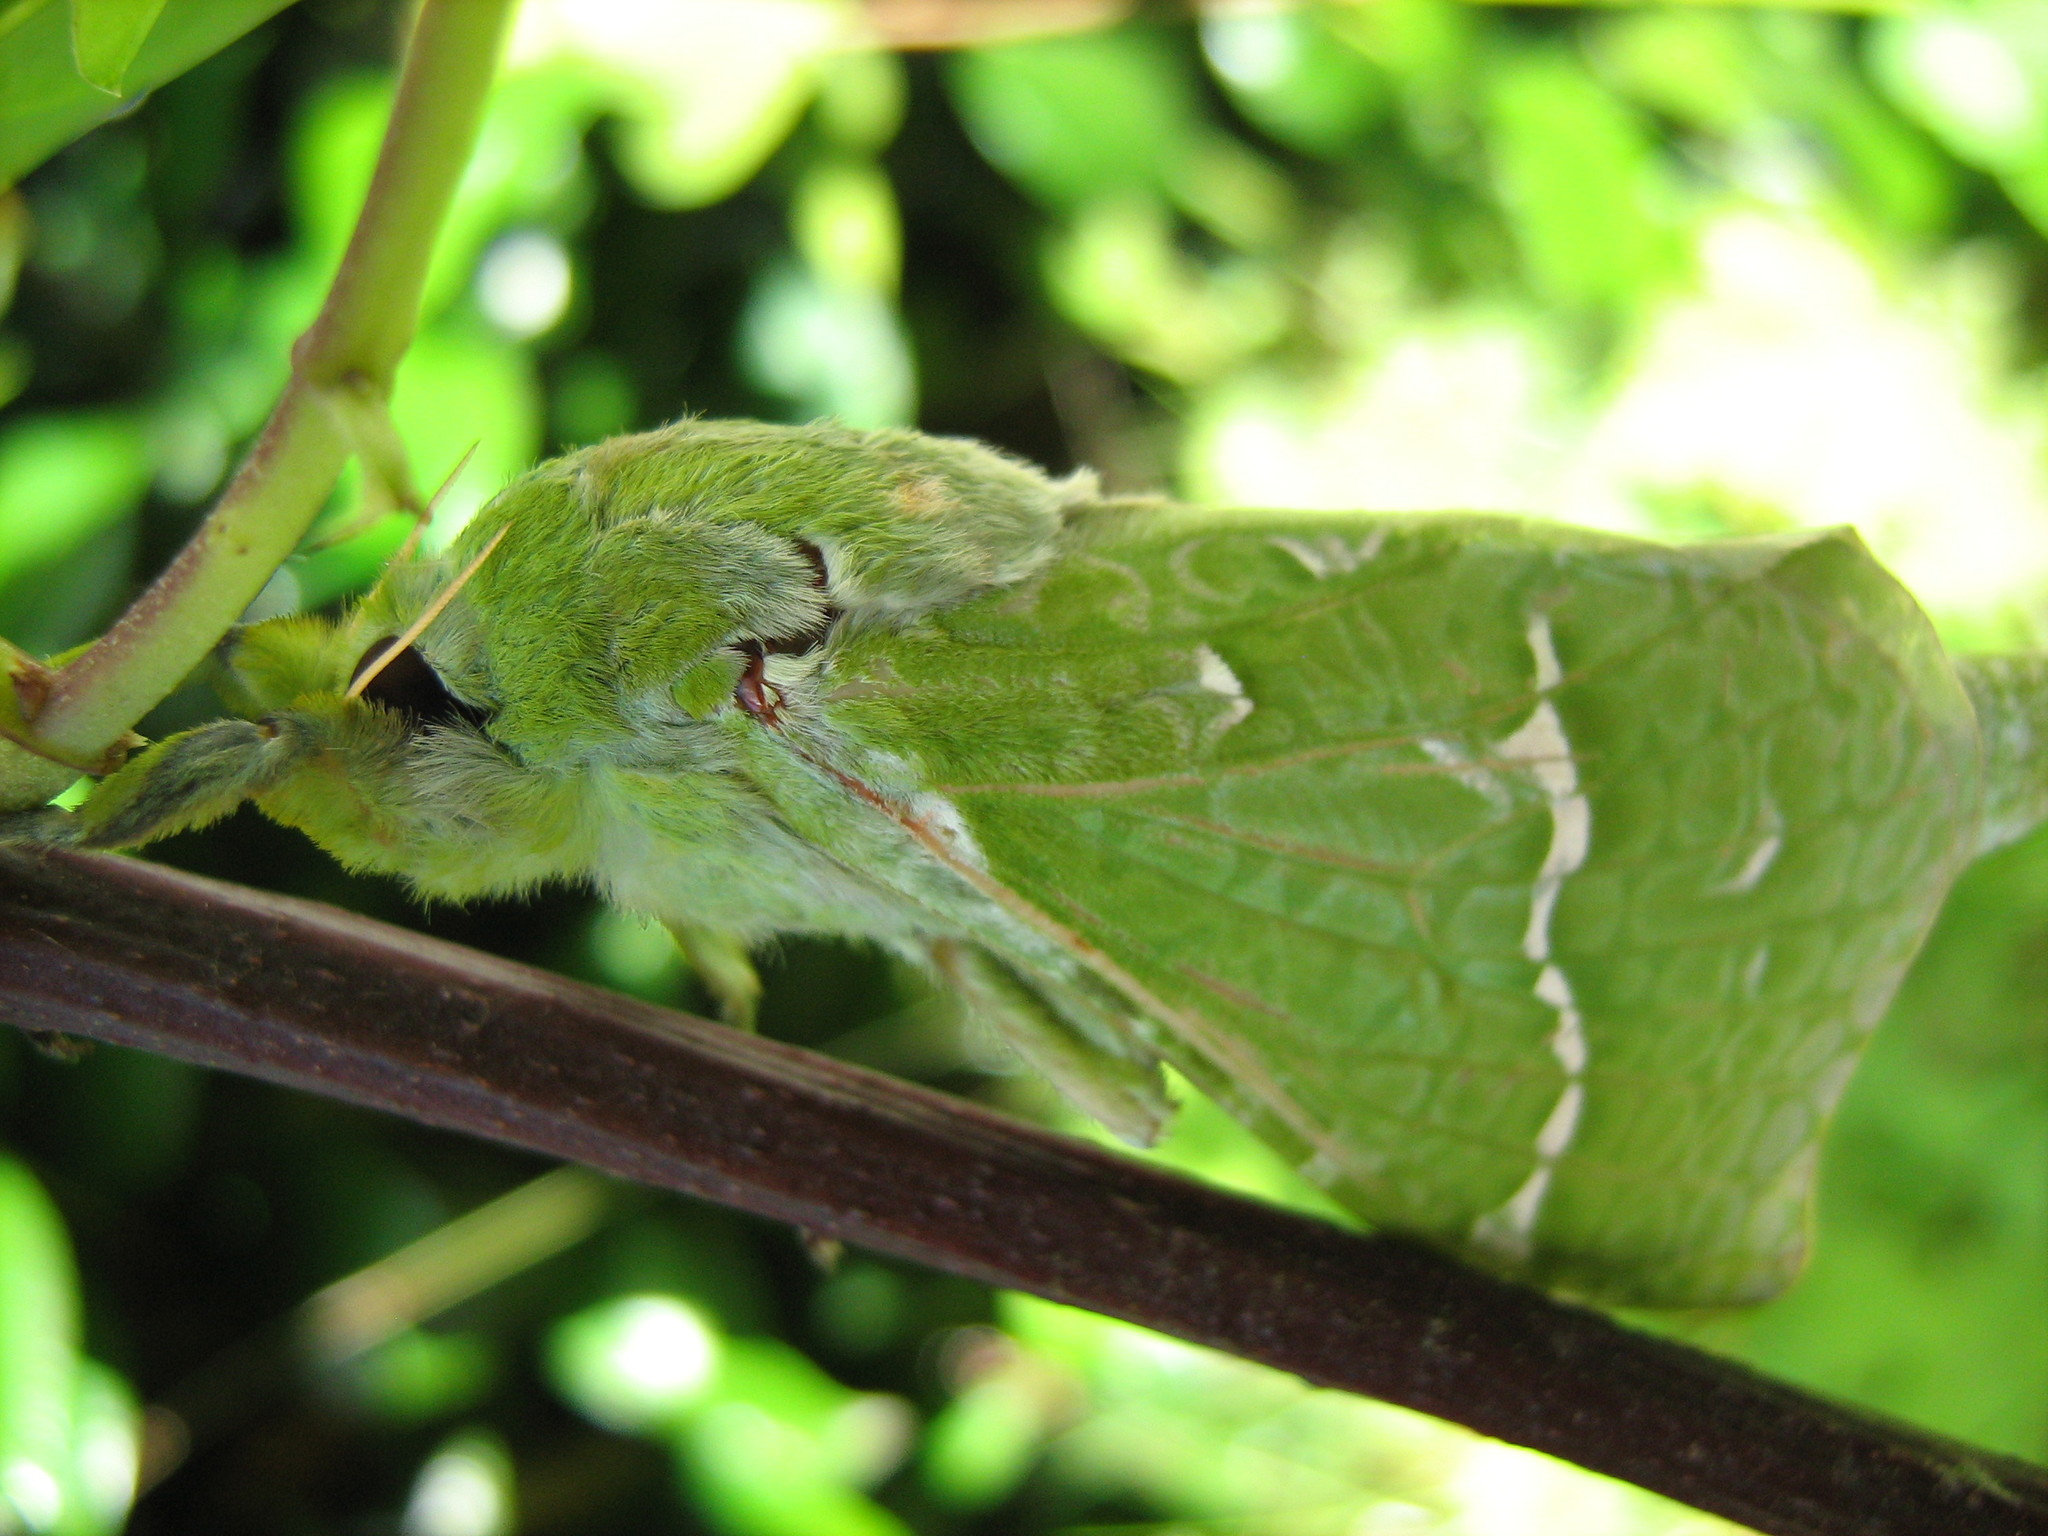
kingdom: Animalia
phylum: Arthropoda
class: Insecta
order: Lepidoptera
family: Hepialidae
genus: Aenetus
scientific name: Aenetus virescens
